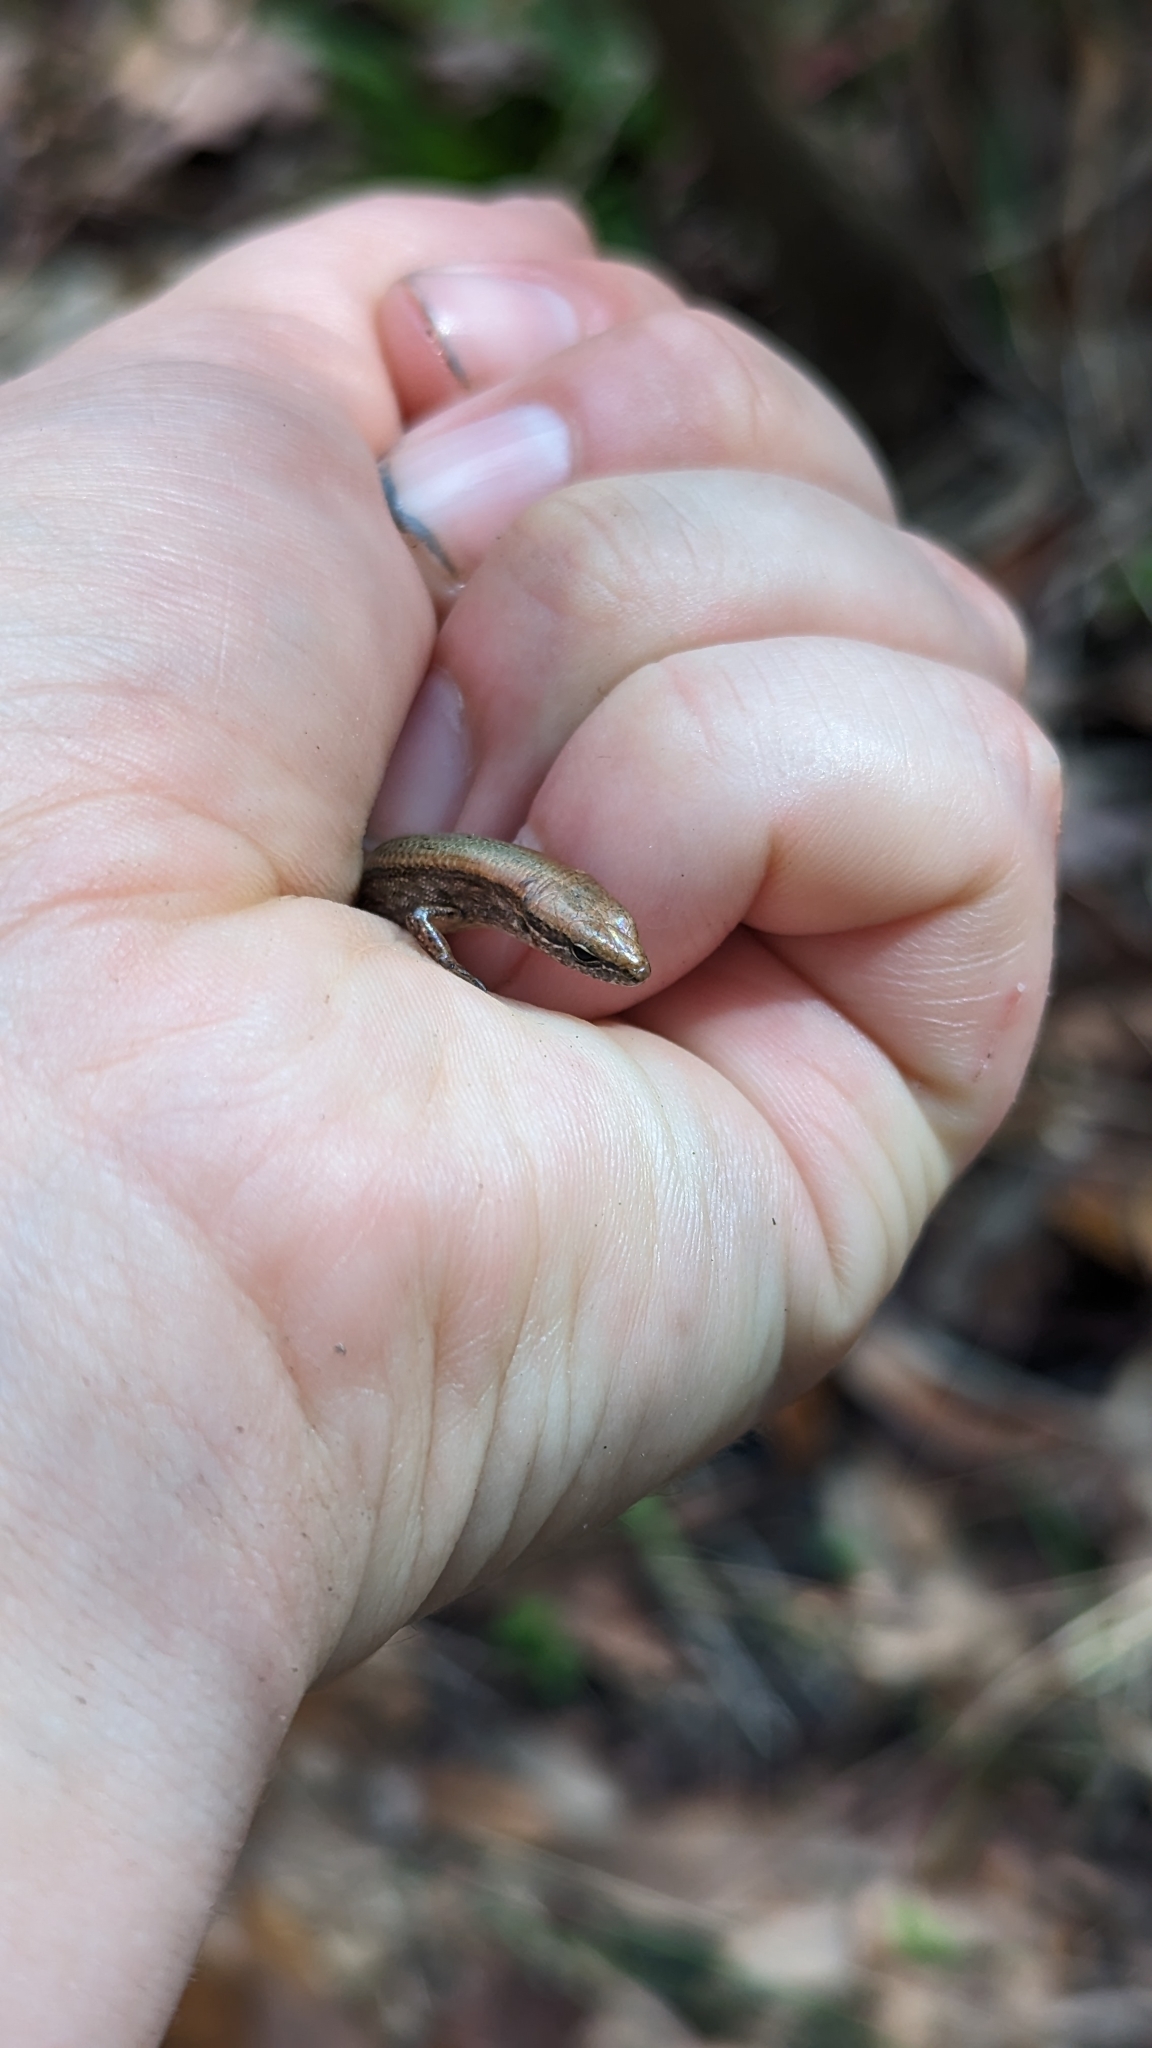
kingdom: Animalia
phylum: Chordata
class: Squamata
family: Scincidae
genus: Scincella
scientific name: Scincella lateralis
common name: Ground skink
